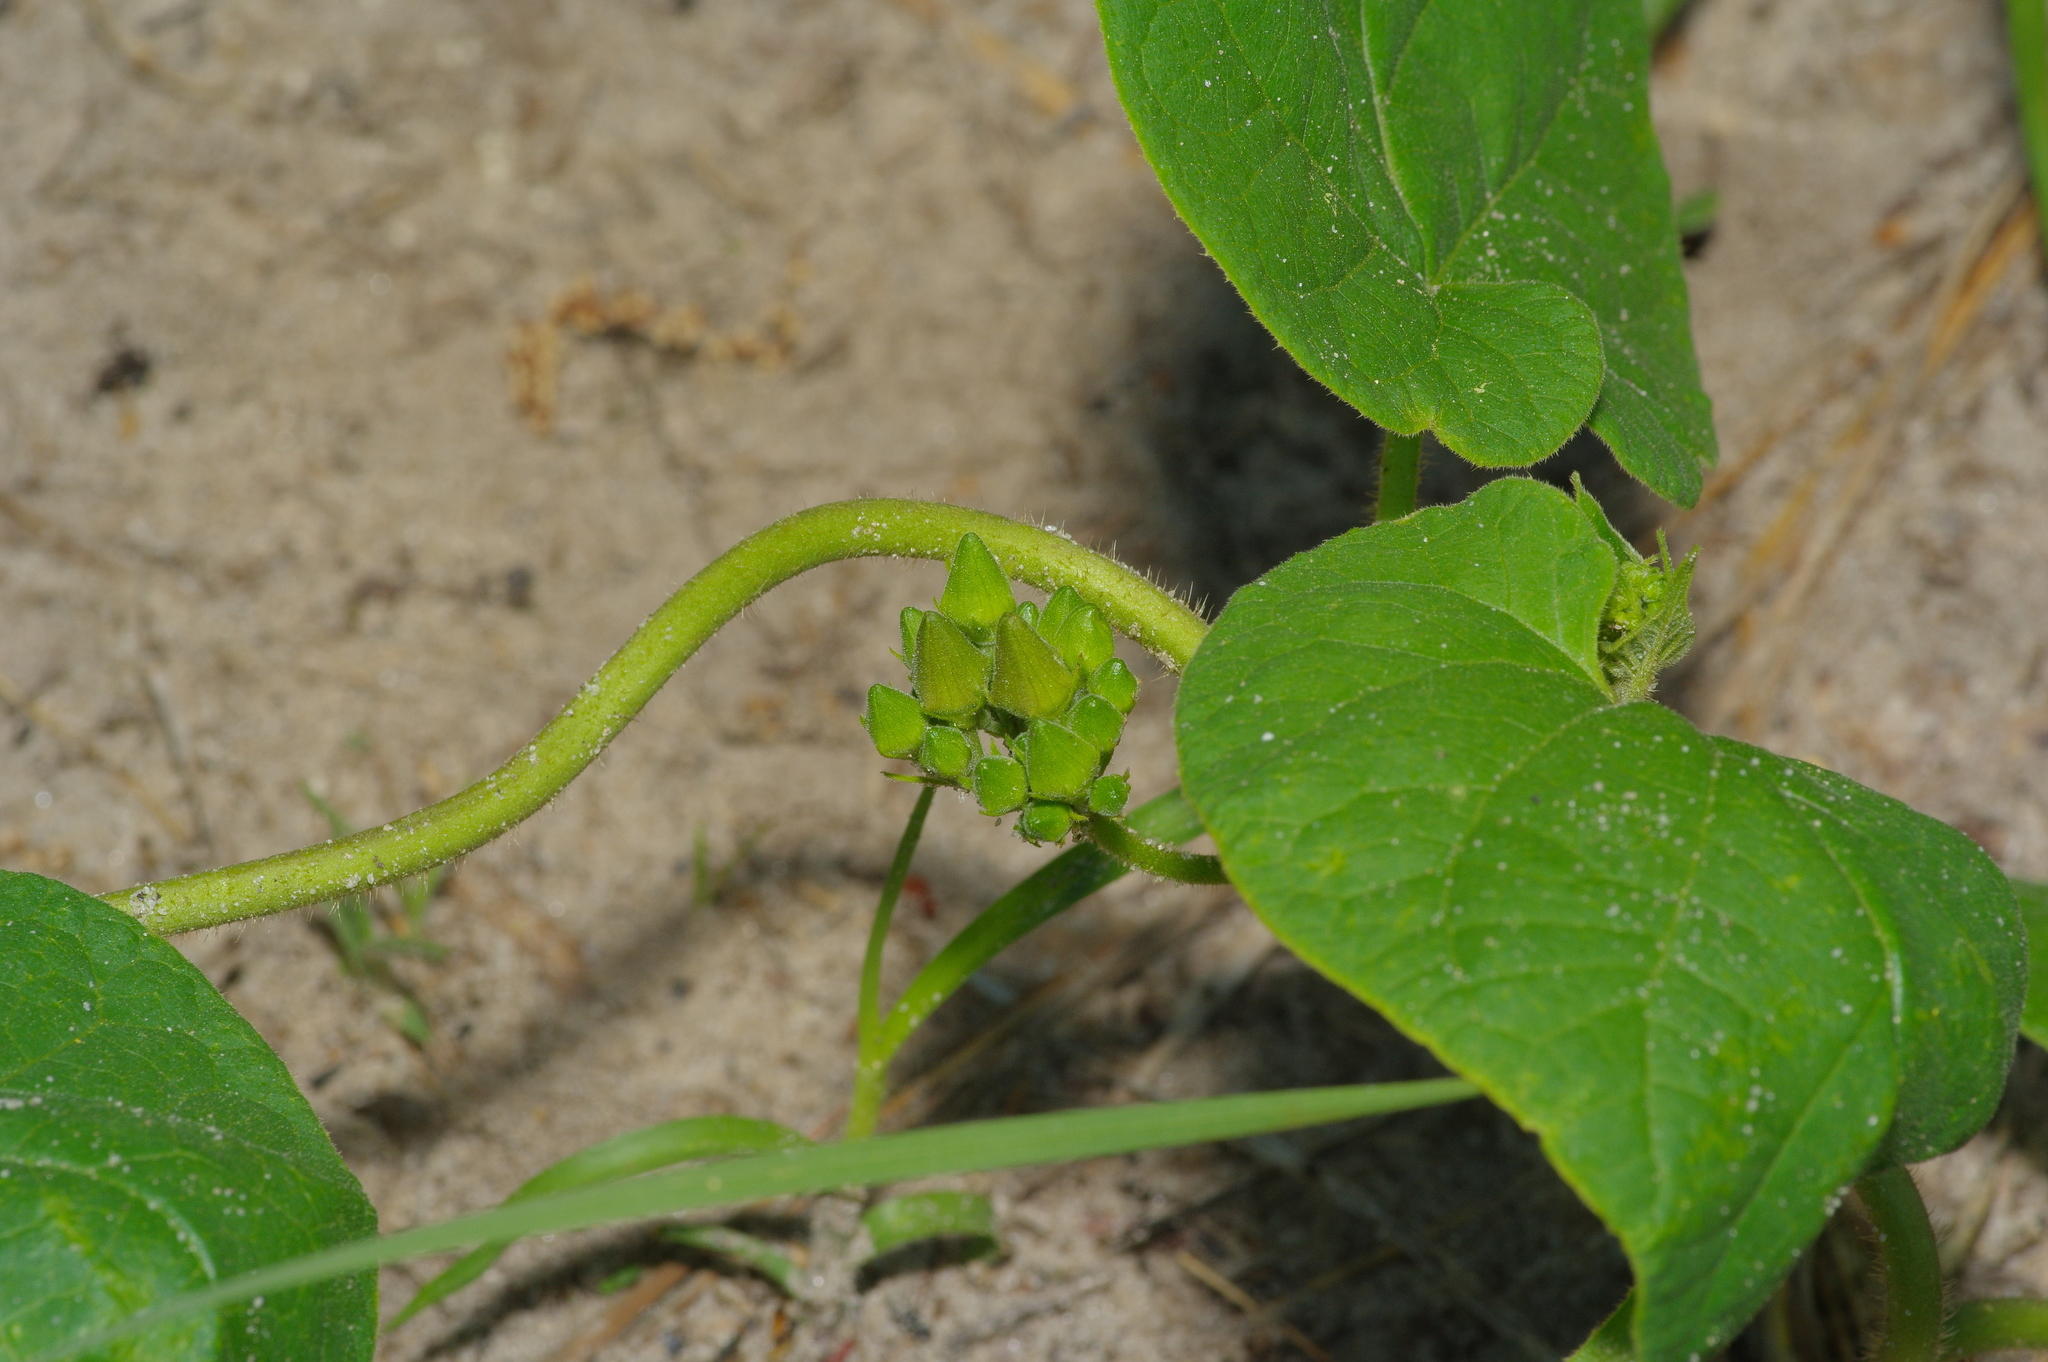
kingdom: Plantae
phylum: Tracheophyta
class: Magnoliopsida
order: Gentianales
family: Apocynaceae
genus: Gonolobus
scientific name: Gonolobus suberosus
